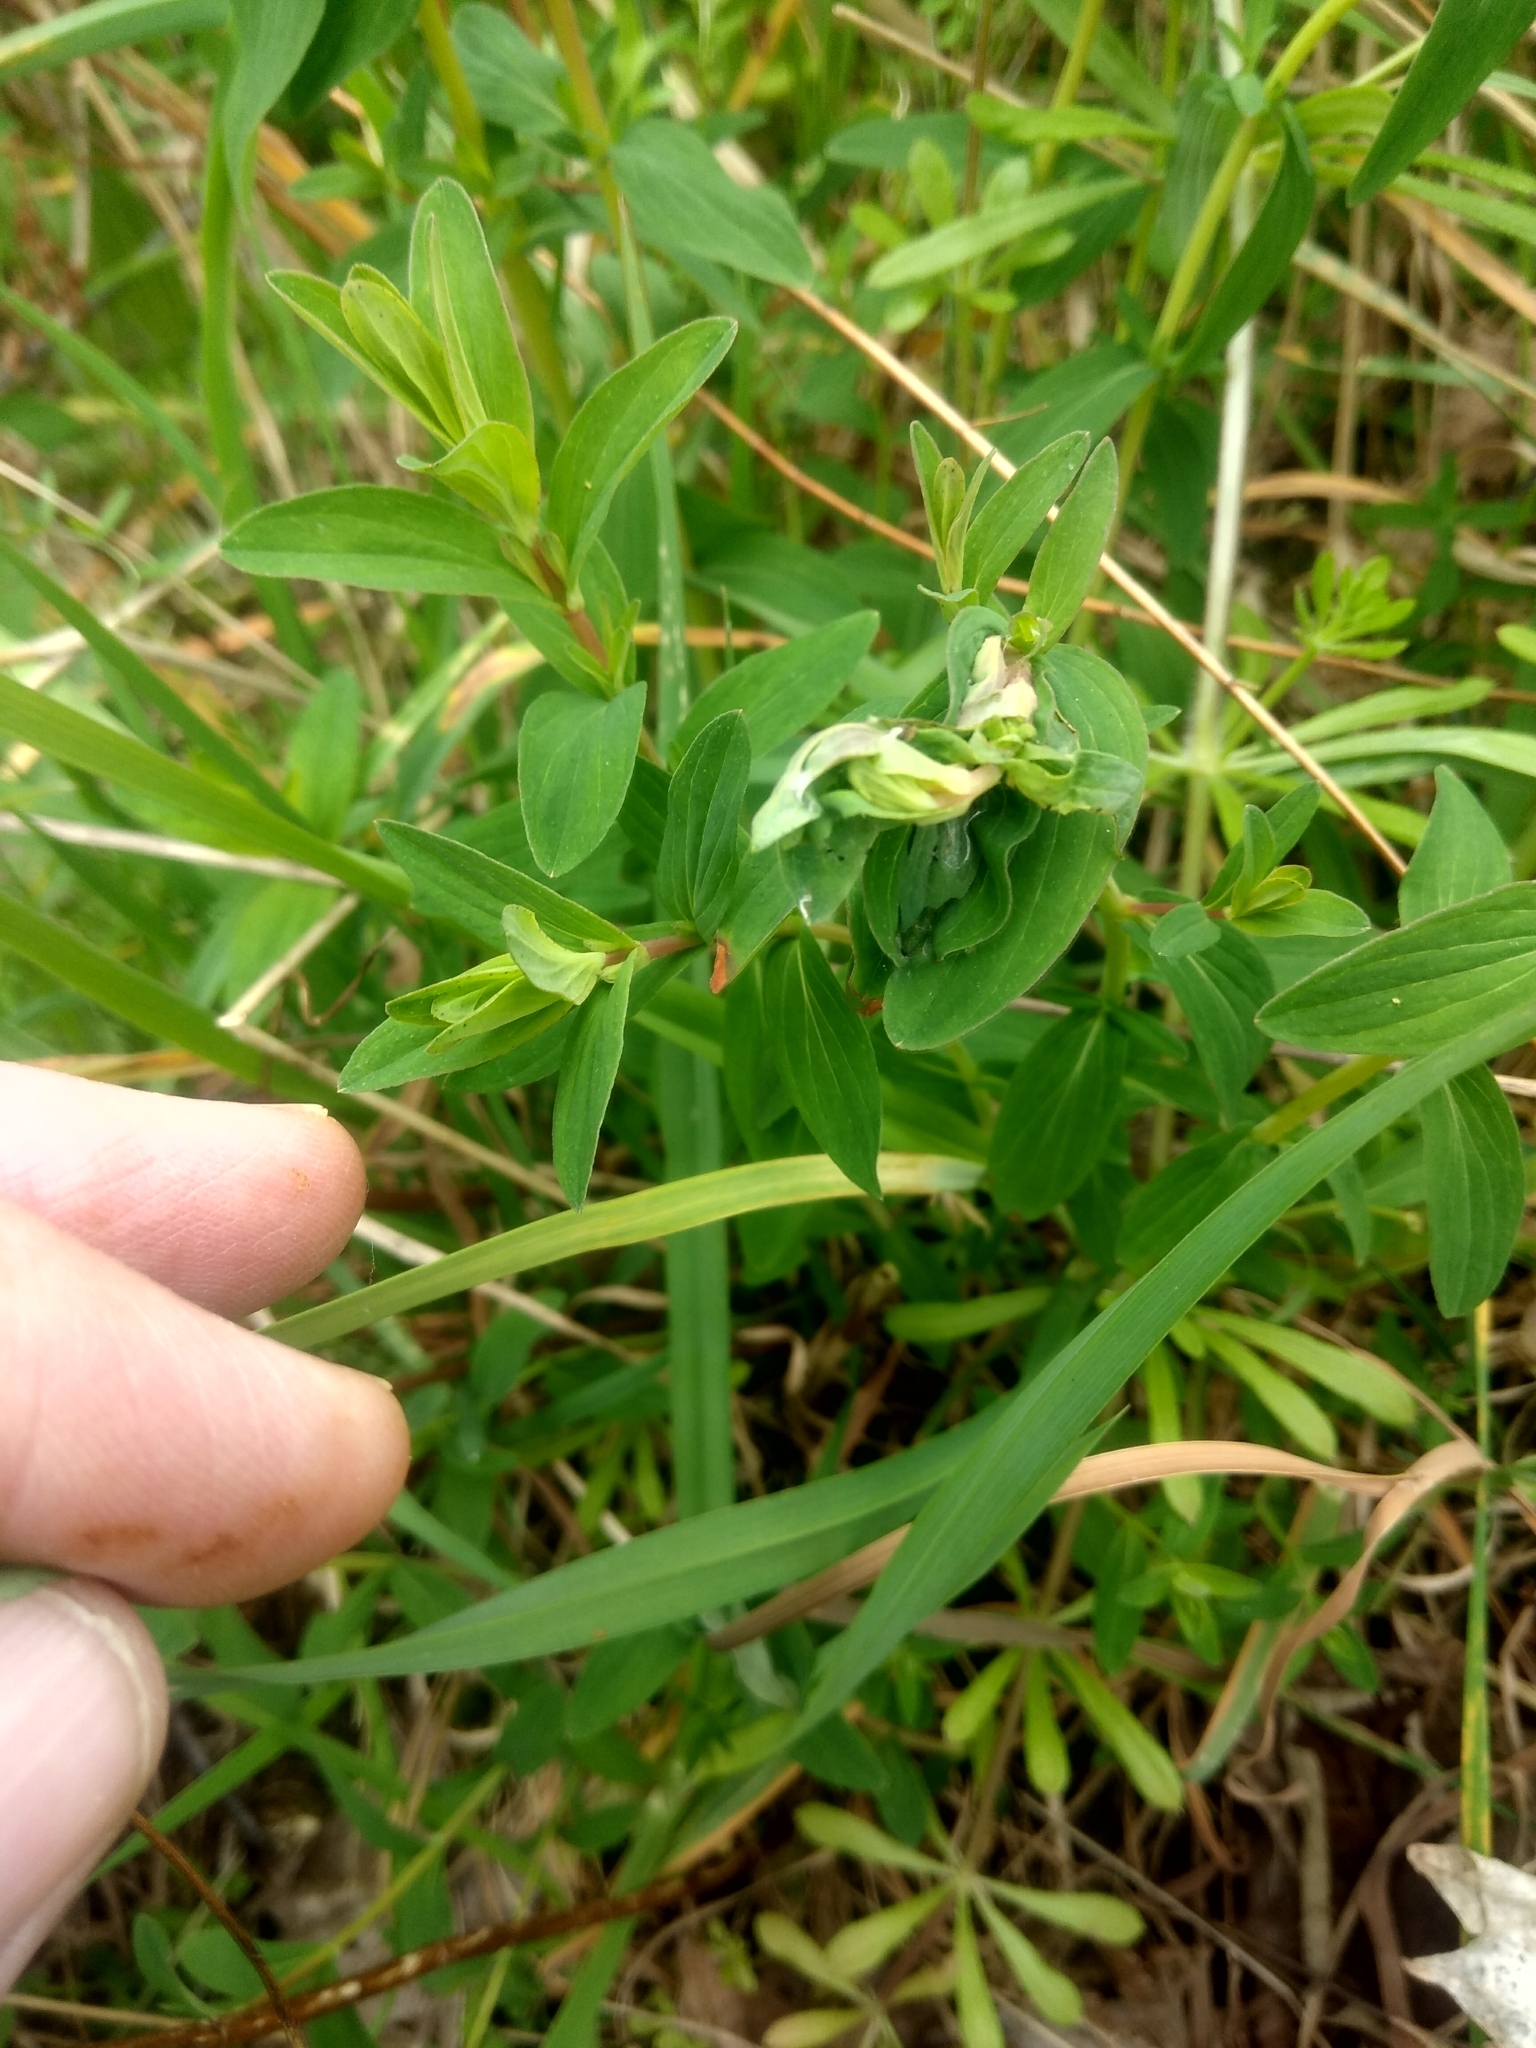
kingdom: Plantae
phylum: Tracheophyta
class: Magnoliopsida
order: Malpighiales
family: Hypericaceae
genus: Hypericum
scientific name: Hypericum perforatum
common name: Common st. johnswort
